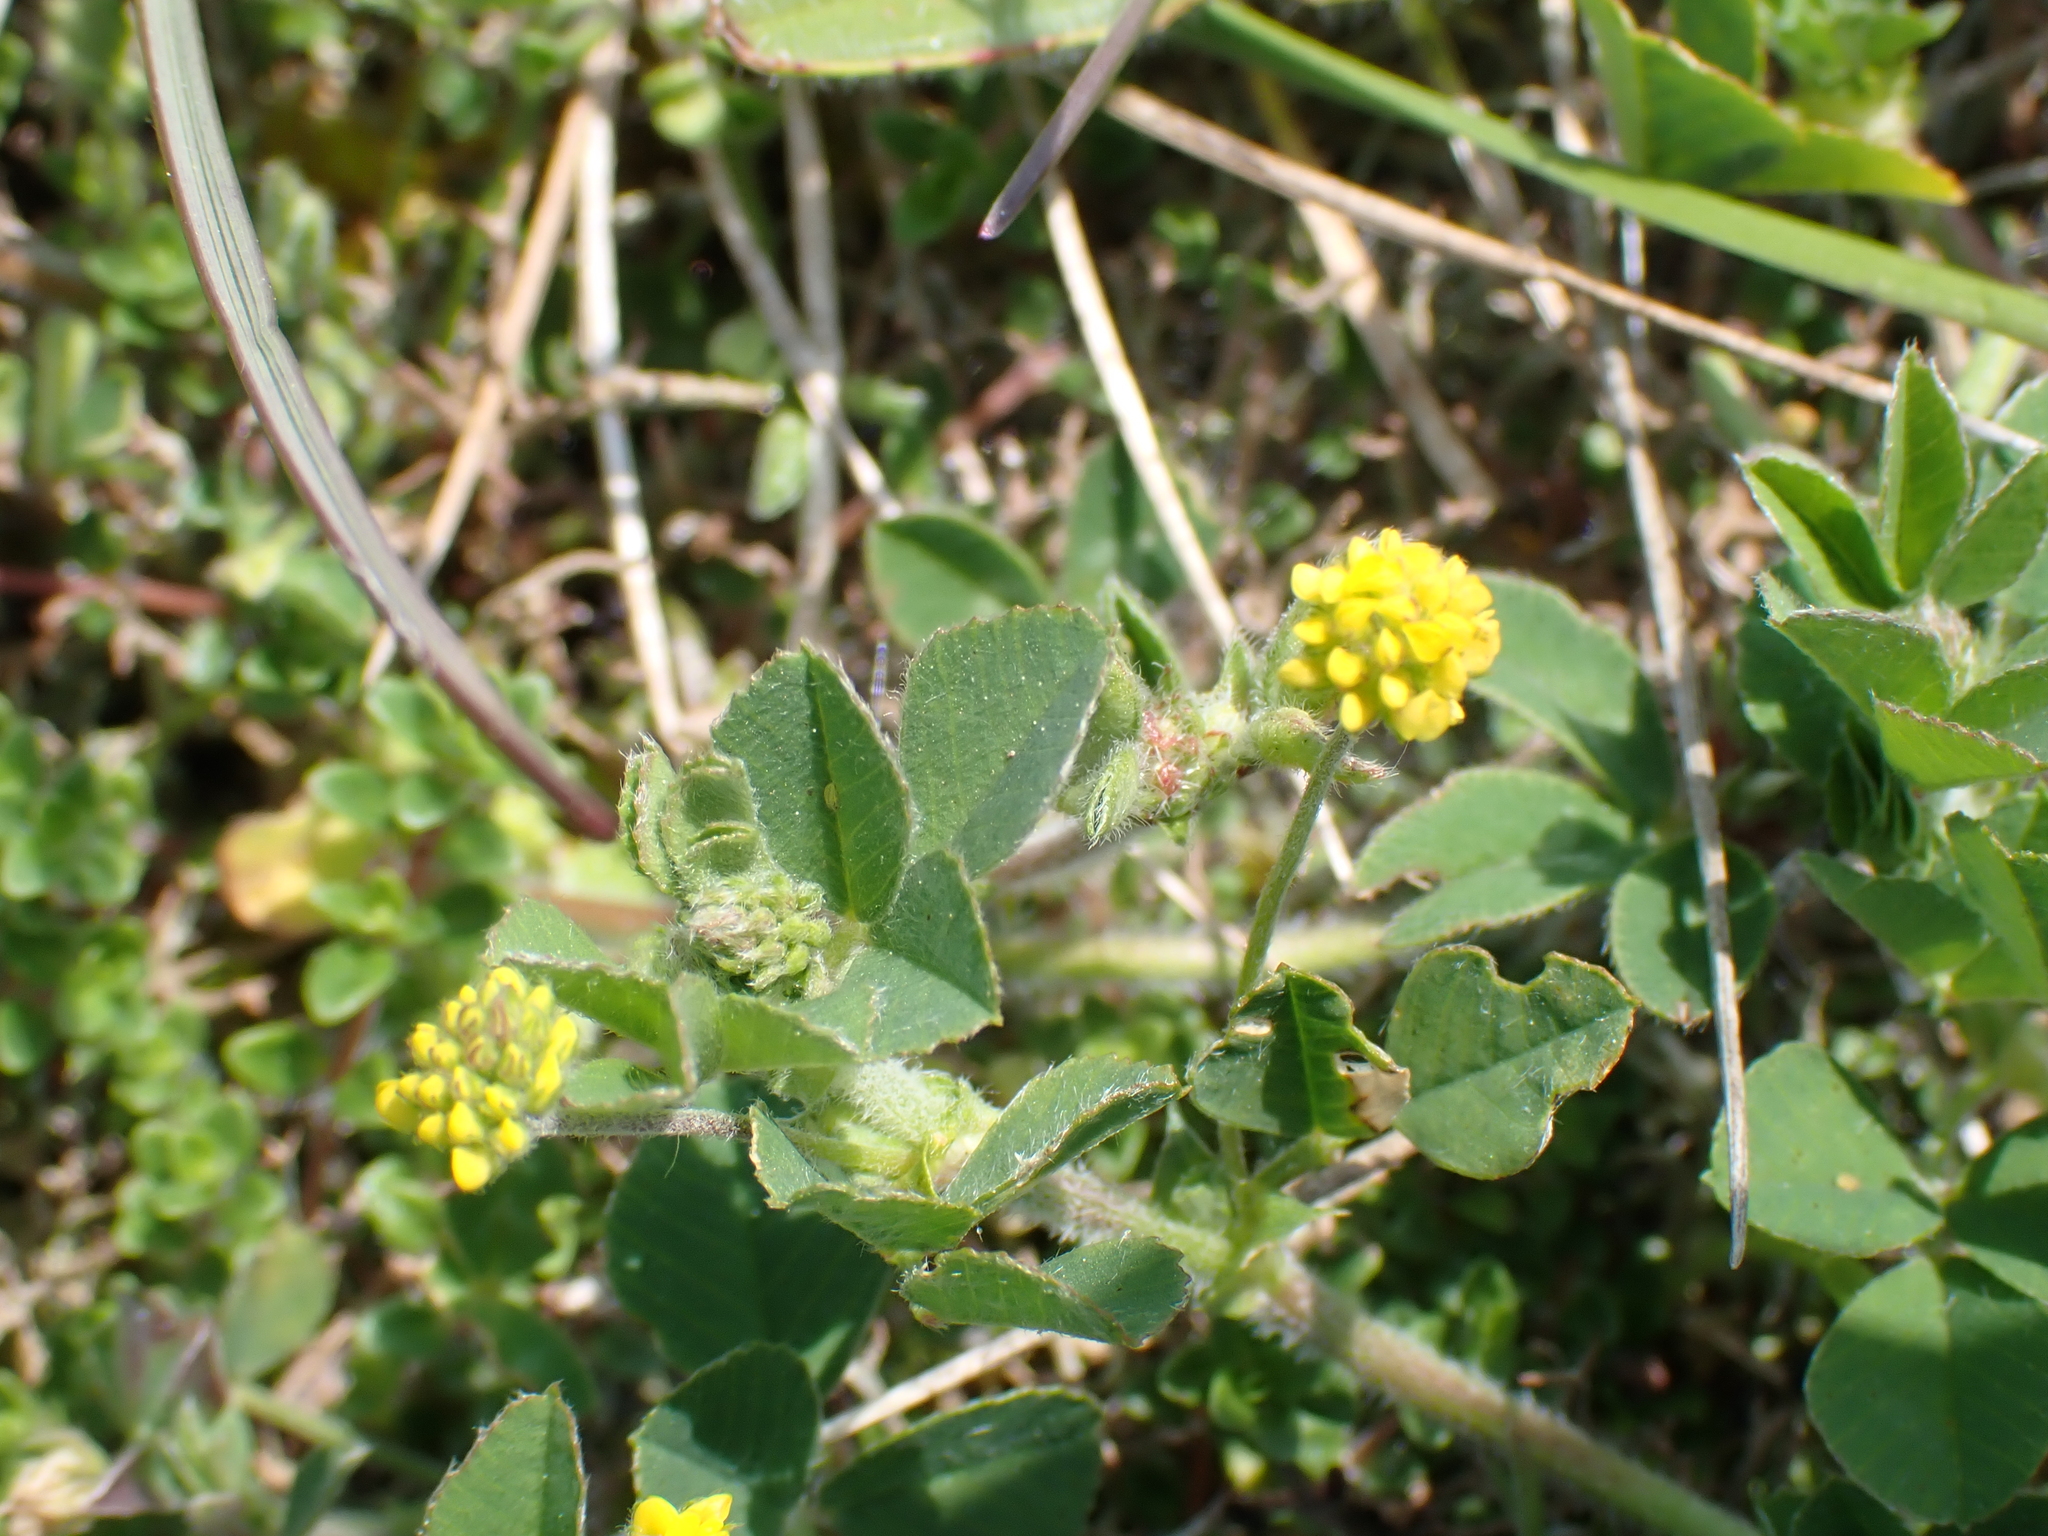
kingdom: Plantae
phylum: Tracheophyta
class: Magnoliopsida
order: Fabales
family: Fabaceae
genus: Medicago
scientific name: Medicago lupulina
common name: Black medick
